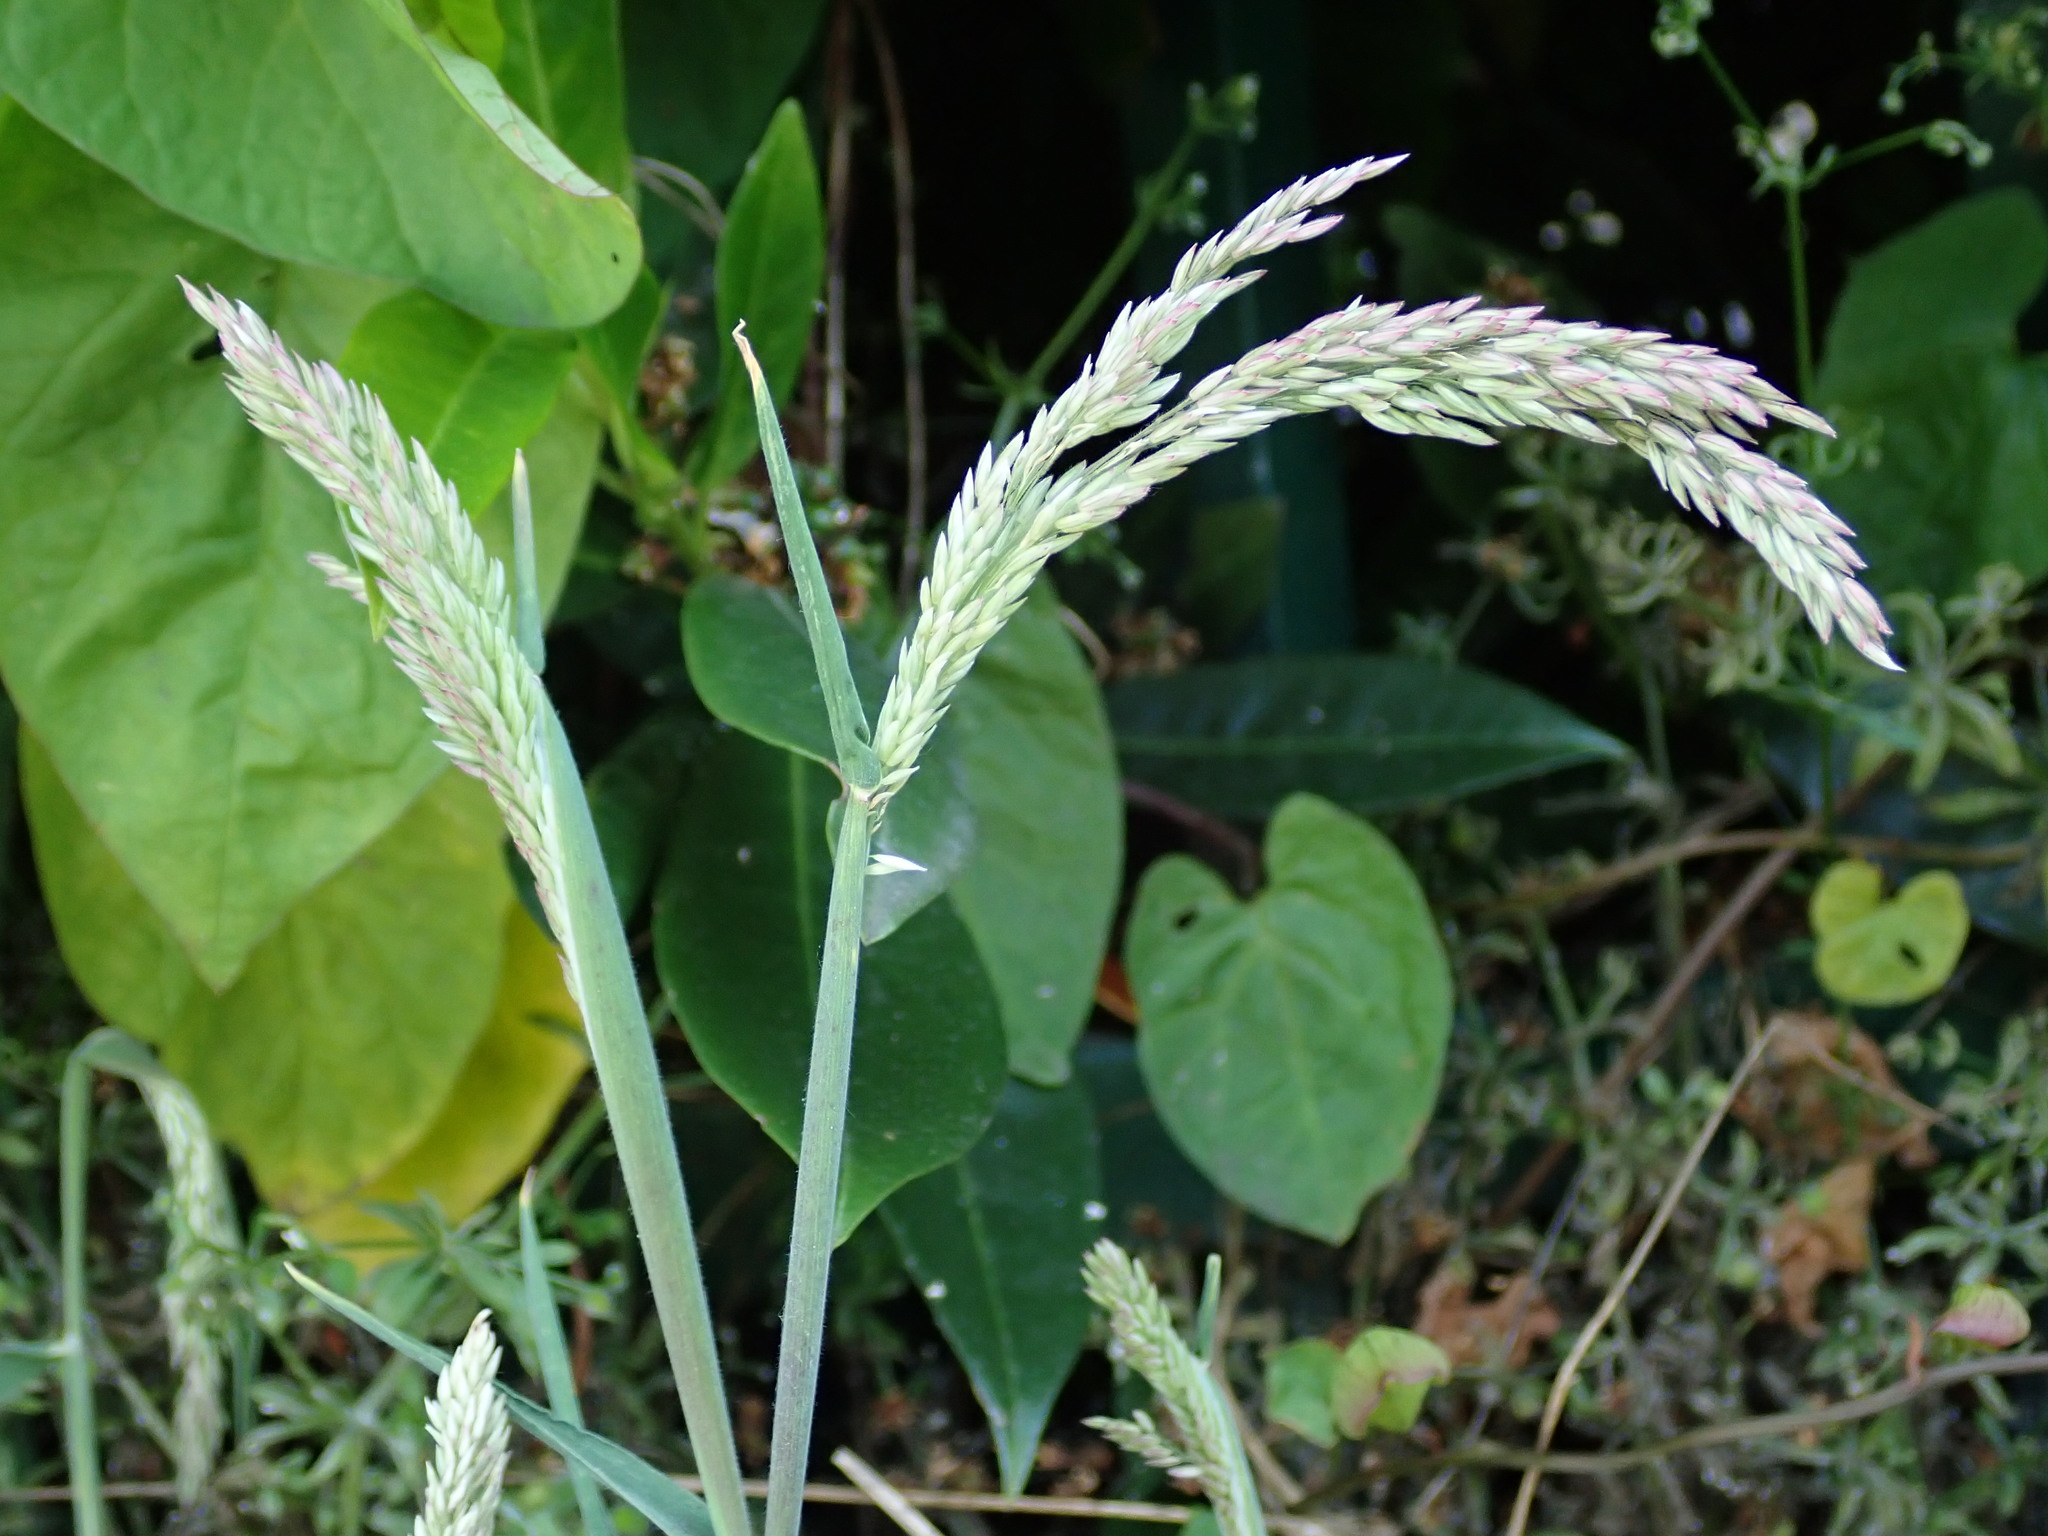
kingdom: Plantae
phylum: Tracheophyta
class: Liliopsida
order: Poales
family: Poaceae
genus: Holcus
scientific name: Holcus lanatus
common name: Yorkshire-fog
